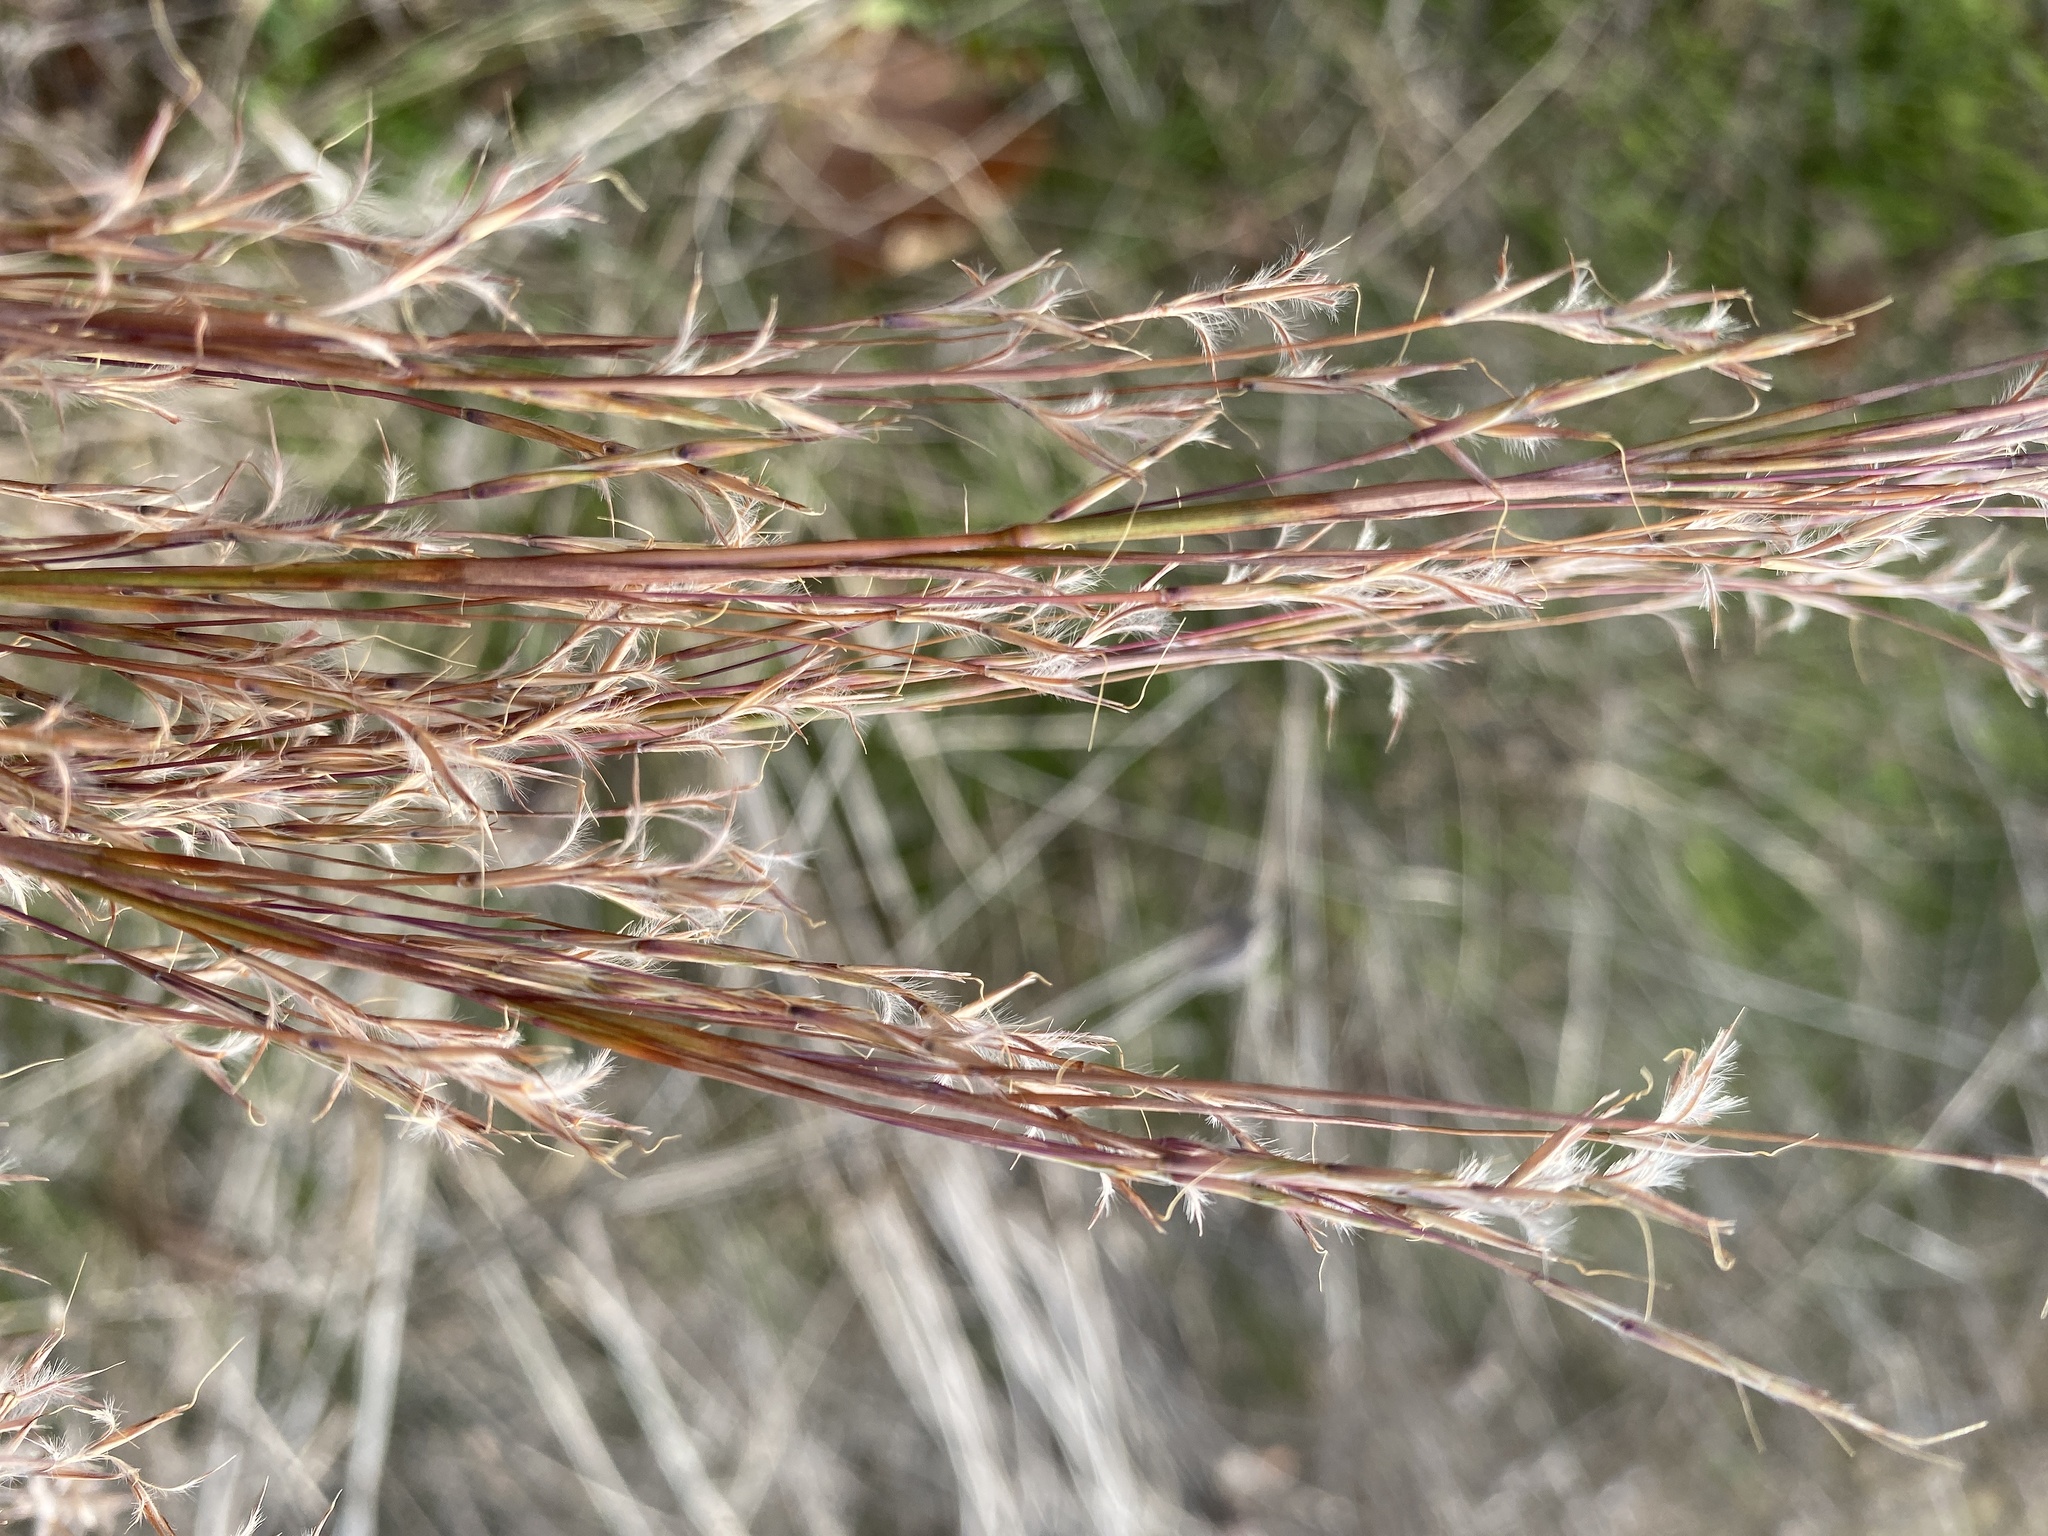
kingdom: Plantae
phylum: Tracheophyta
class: Liliopsida
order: Poales
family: Poaceae
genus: Schizachyrium
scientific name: Schizachyrium scoparium
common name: Little bluestem
